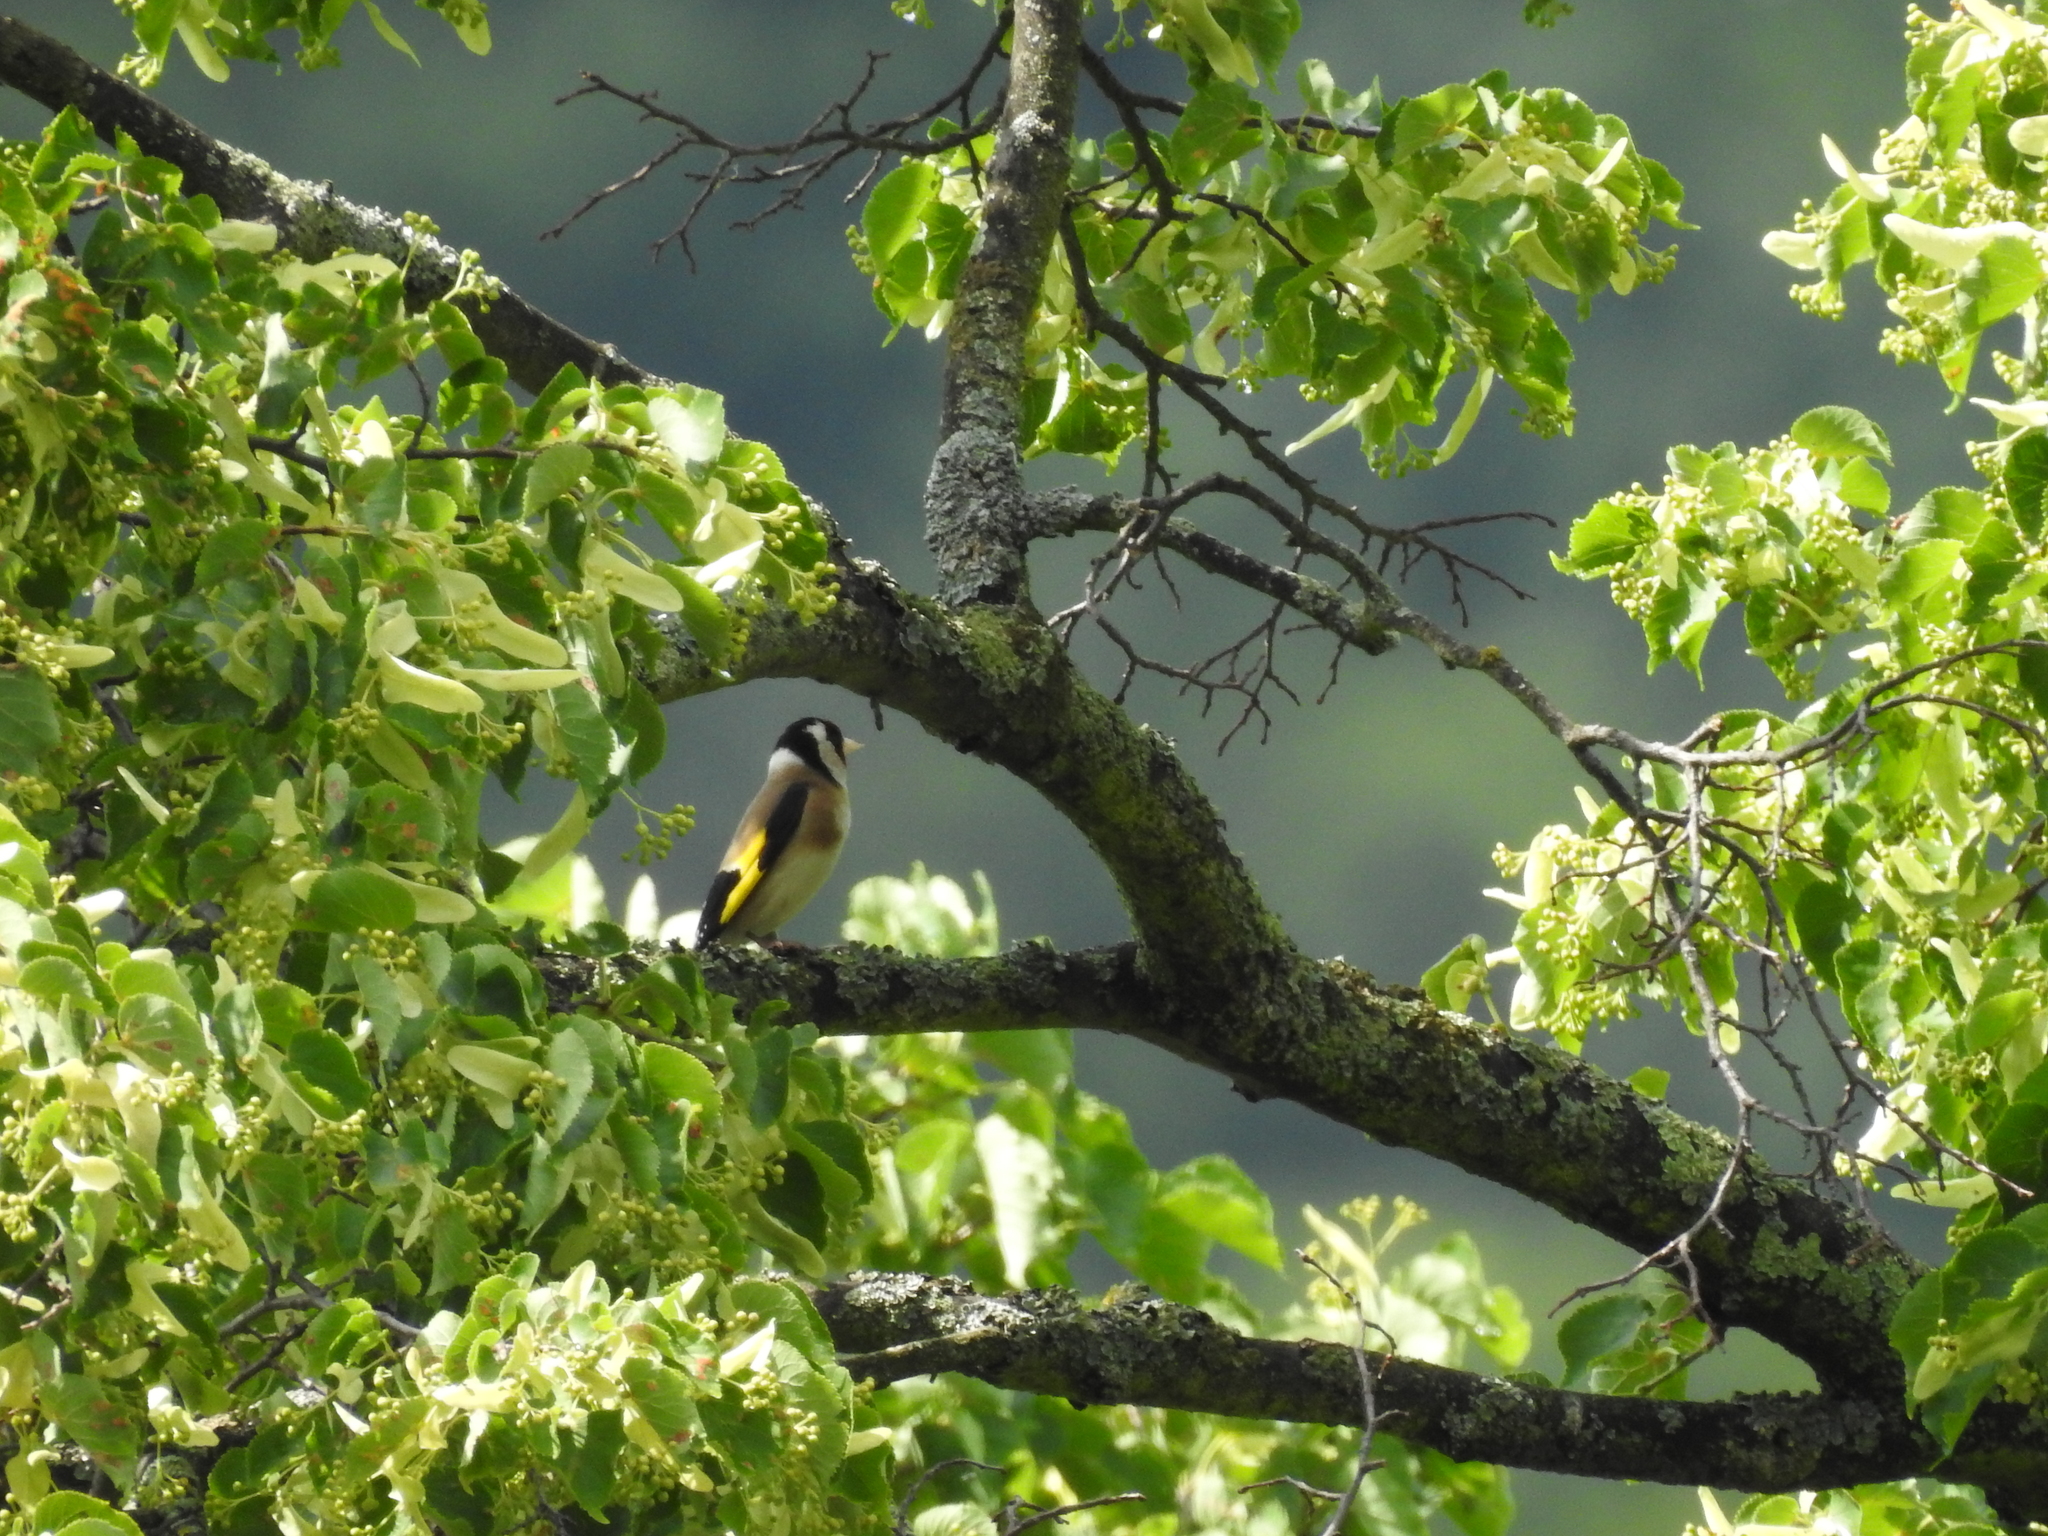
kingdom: Animalia
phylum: Chordata
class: Aves
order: Passeriformes
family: Fringillidae
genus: Carduelis
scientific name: Carduelis carduelis
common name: European goldfinch
